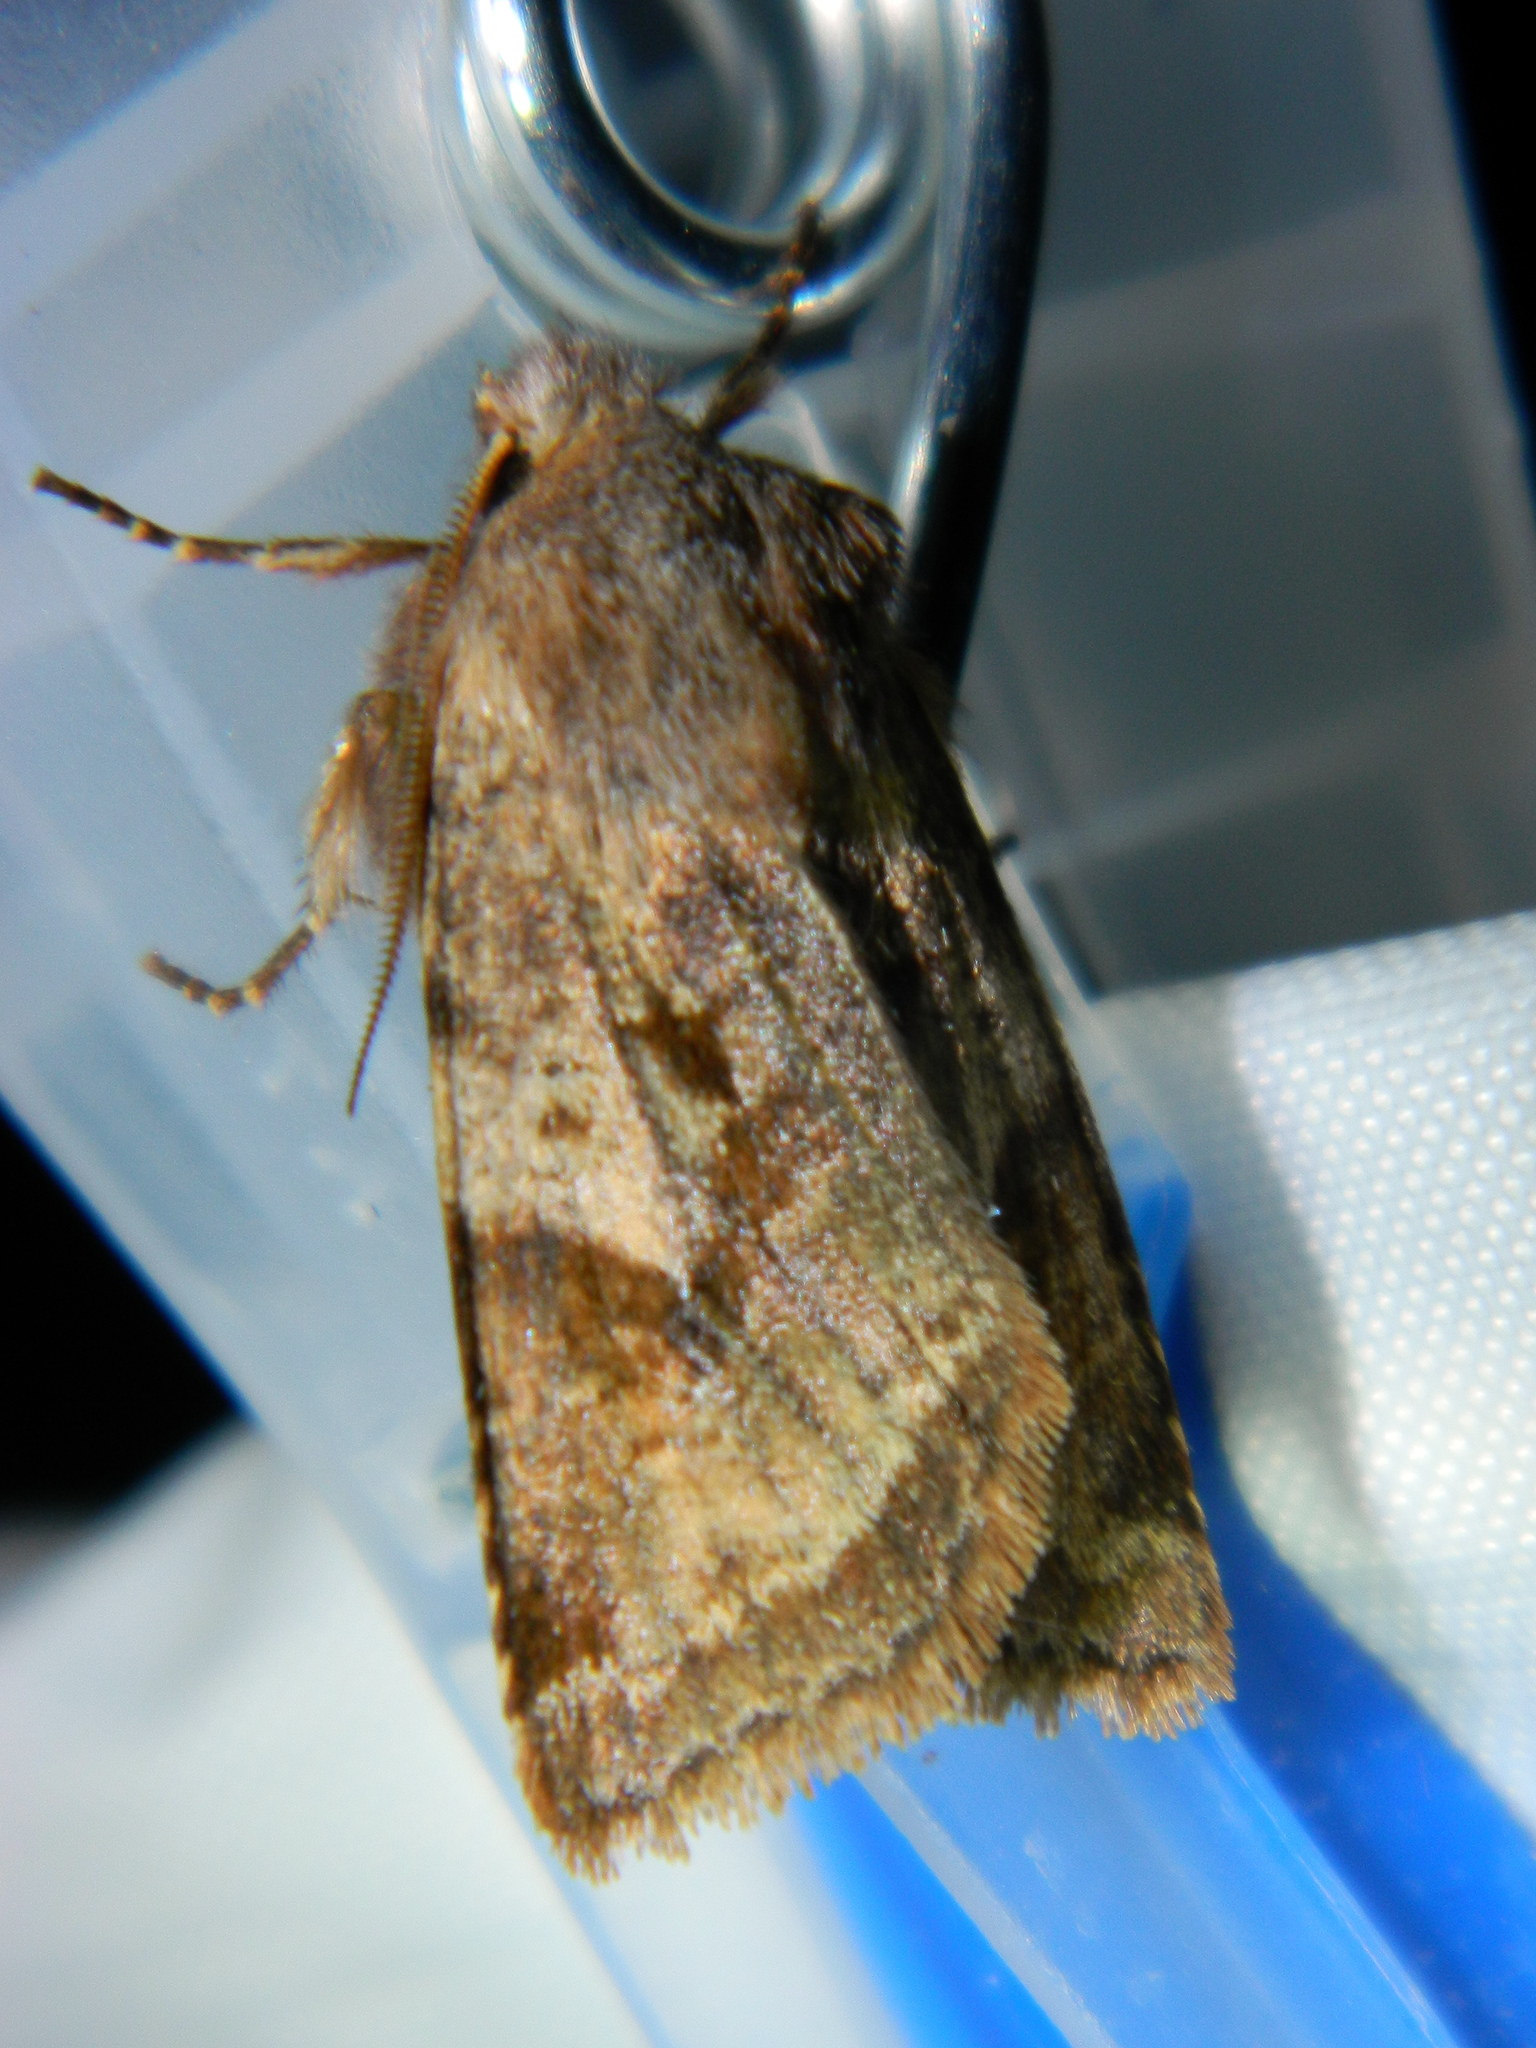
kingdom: Animalia
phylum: Arthropoda
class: Insecta
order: Lepidoptera
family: Noctuidae
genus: Cerastis
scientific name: Cerastis salicarum
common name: Willow dart
